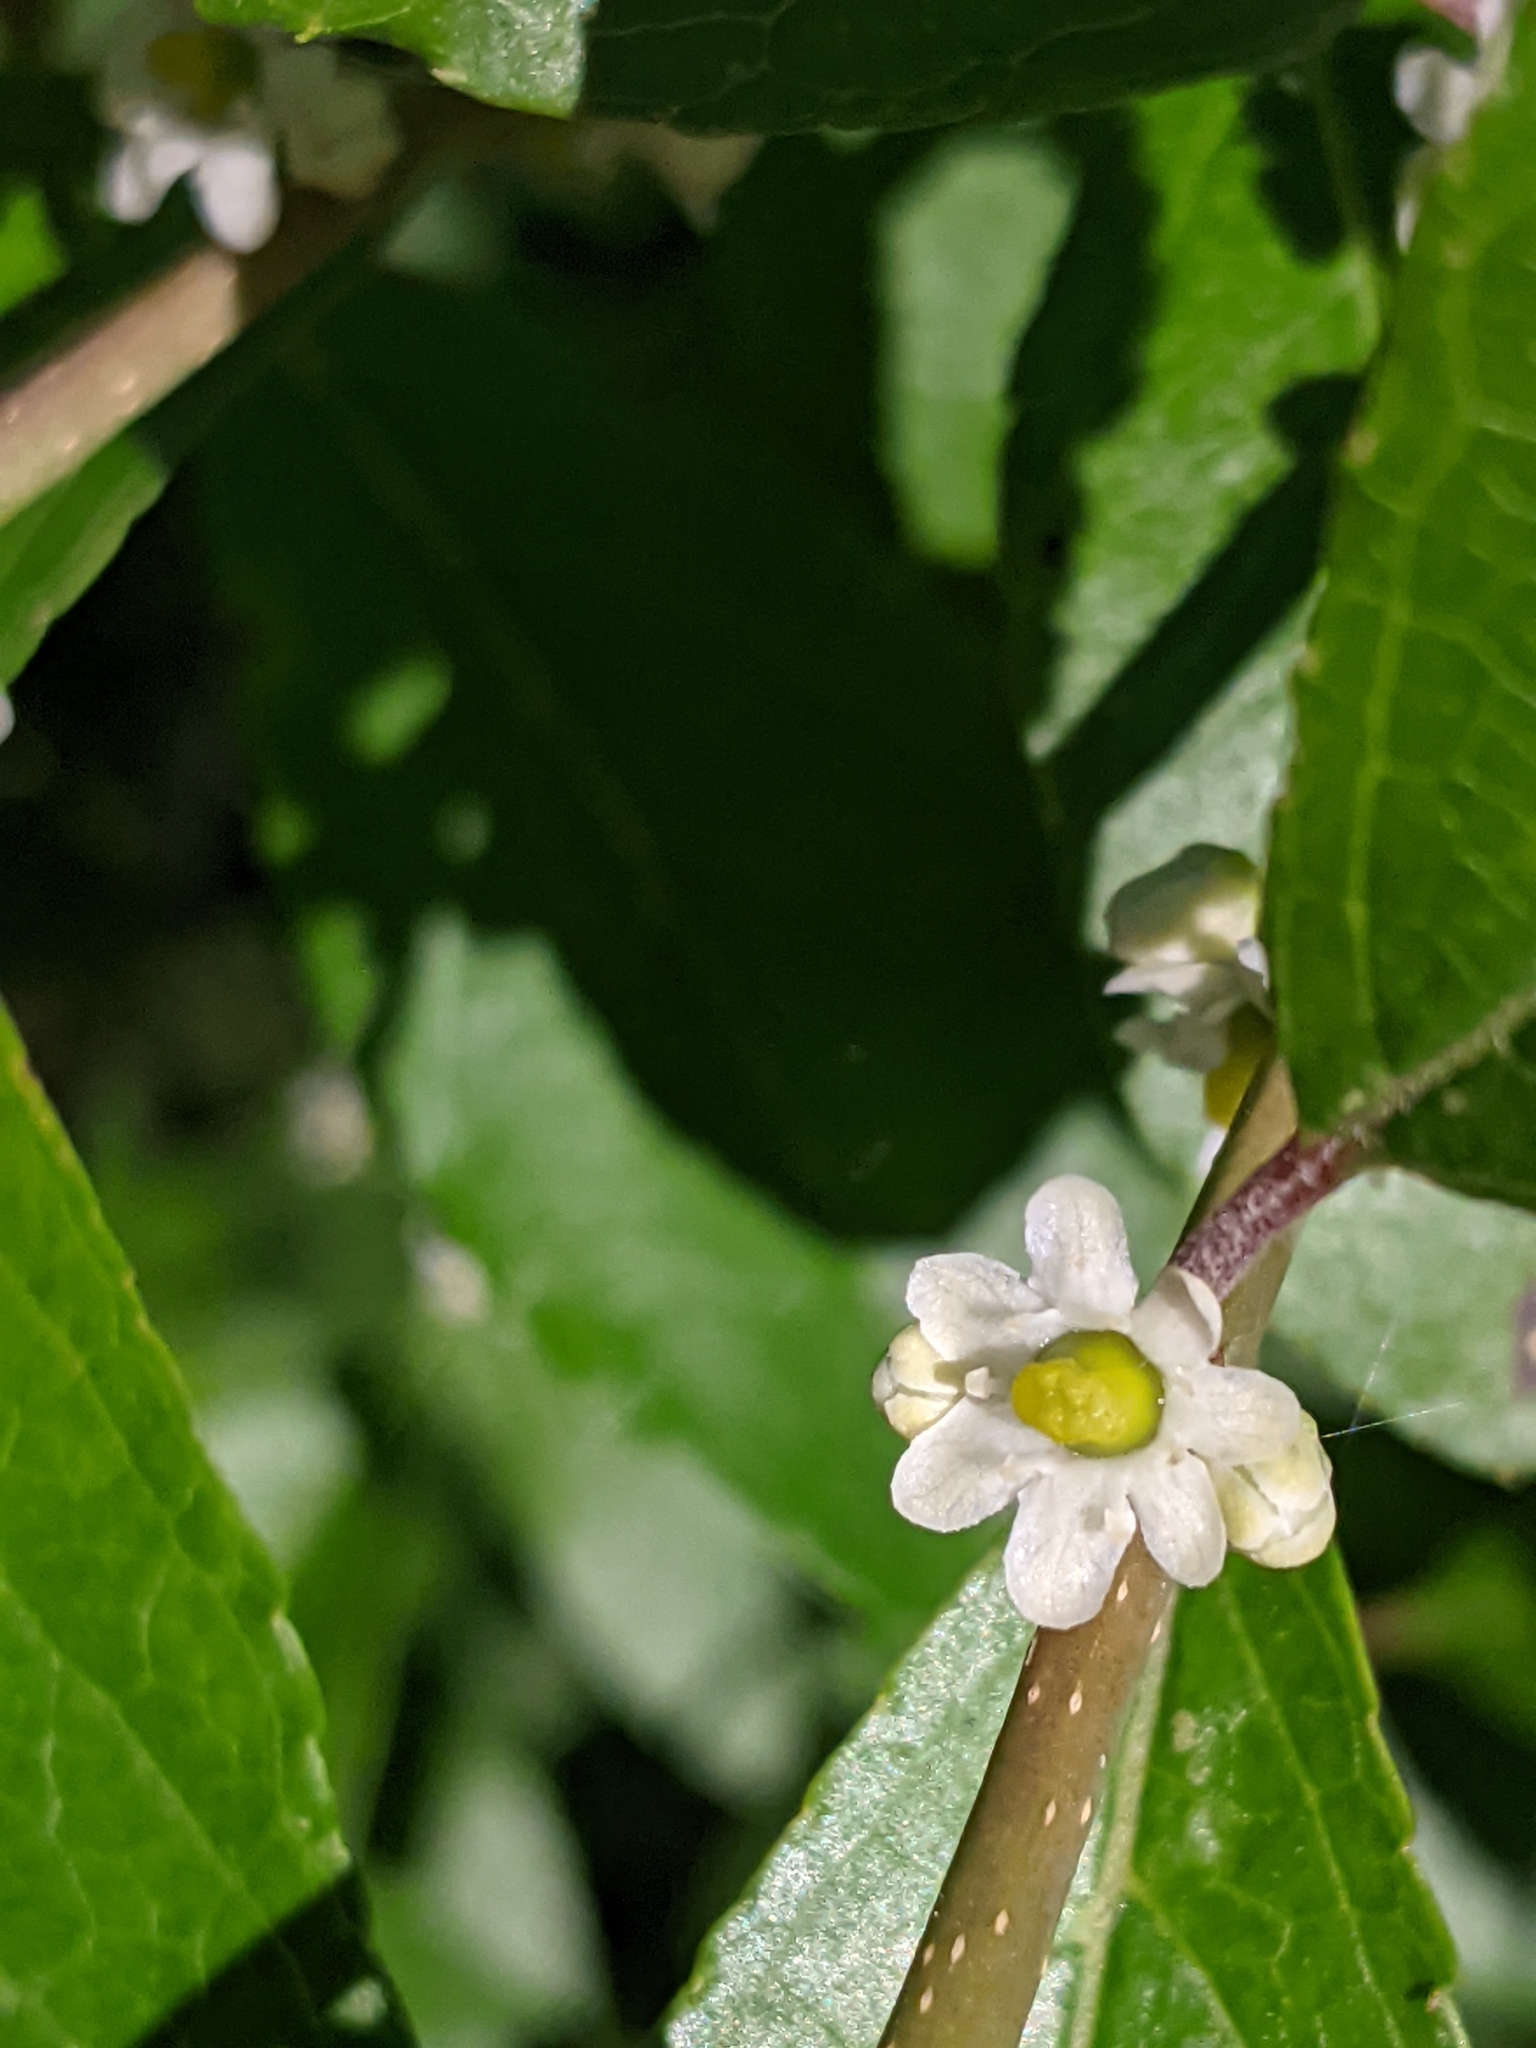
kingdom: Plantae
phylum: Tracheophyta
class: Magnoliopsida
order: Aquifoliales
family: Aquifoliaceae
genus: Ilex
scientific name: Ilex verticillata
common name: Virginia winterberry
